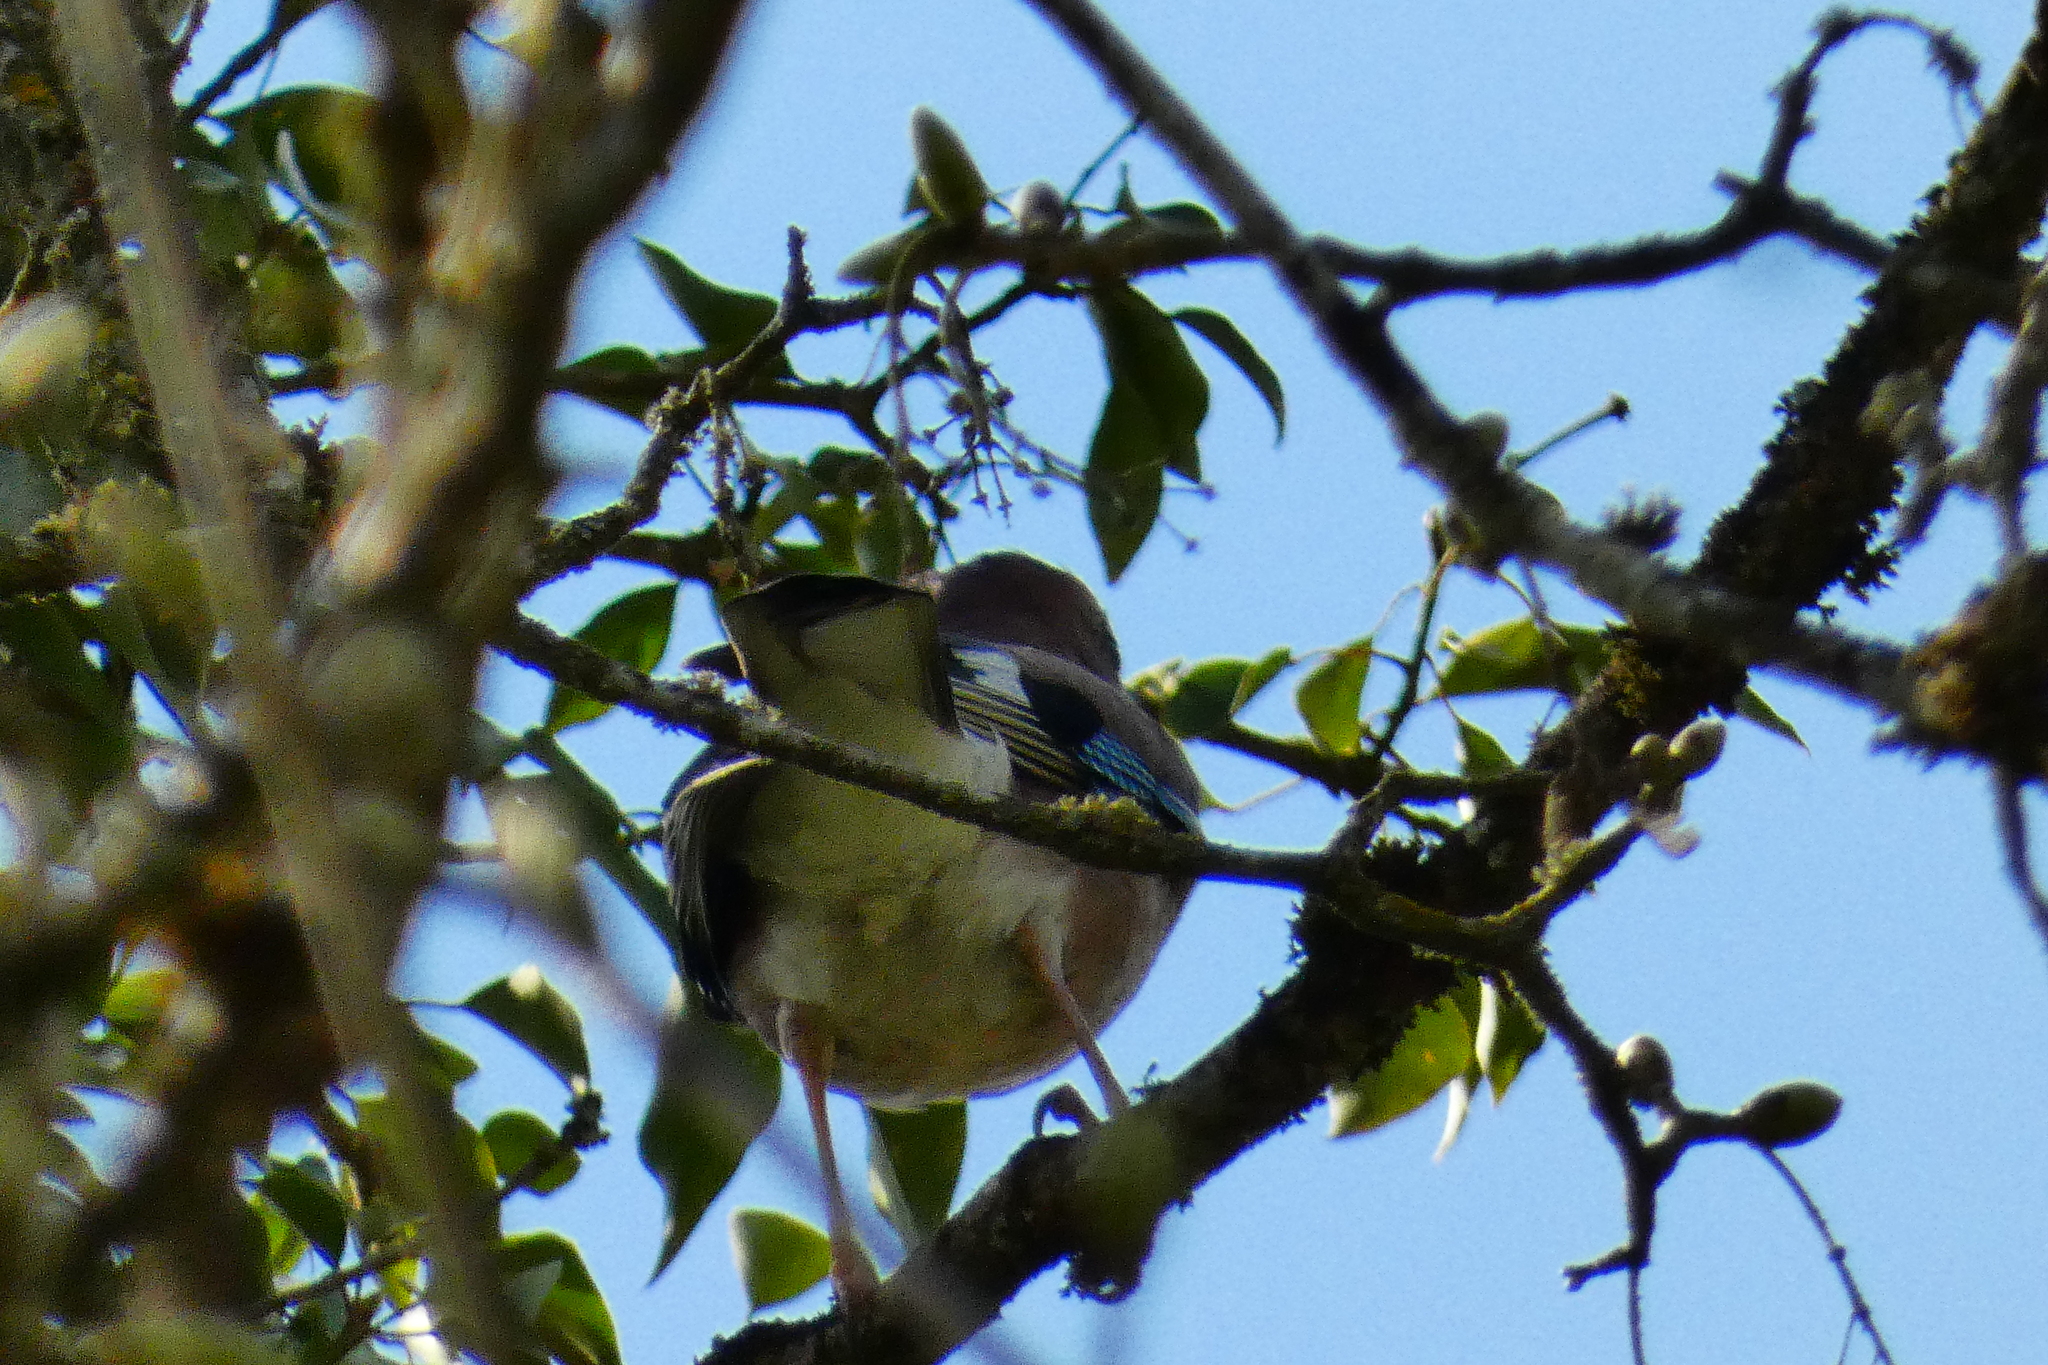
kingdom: Animalia
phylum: Chordata
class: Aves
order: Passeriformes
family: Corvidae
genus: Garrulus
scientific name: Garrulus glandarius
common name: Eurasian jay
